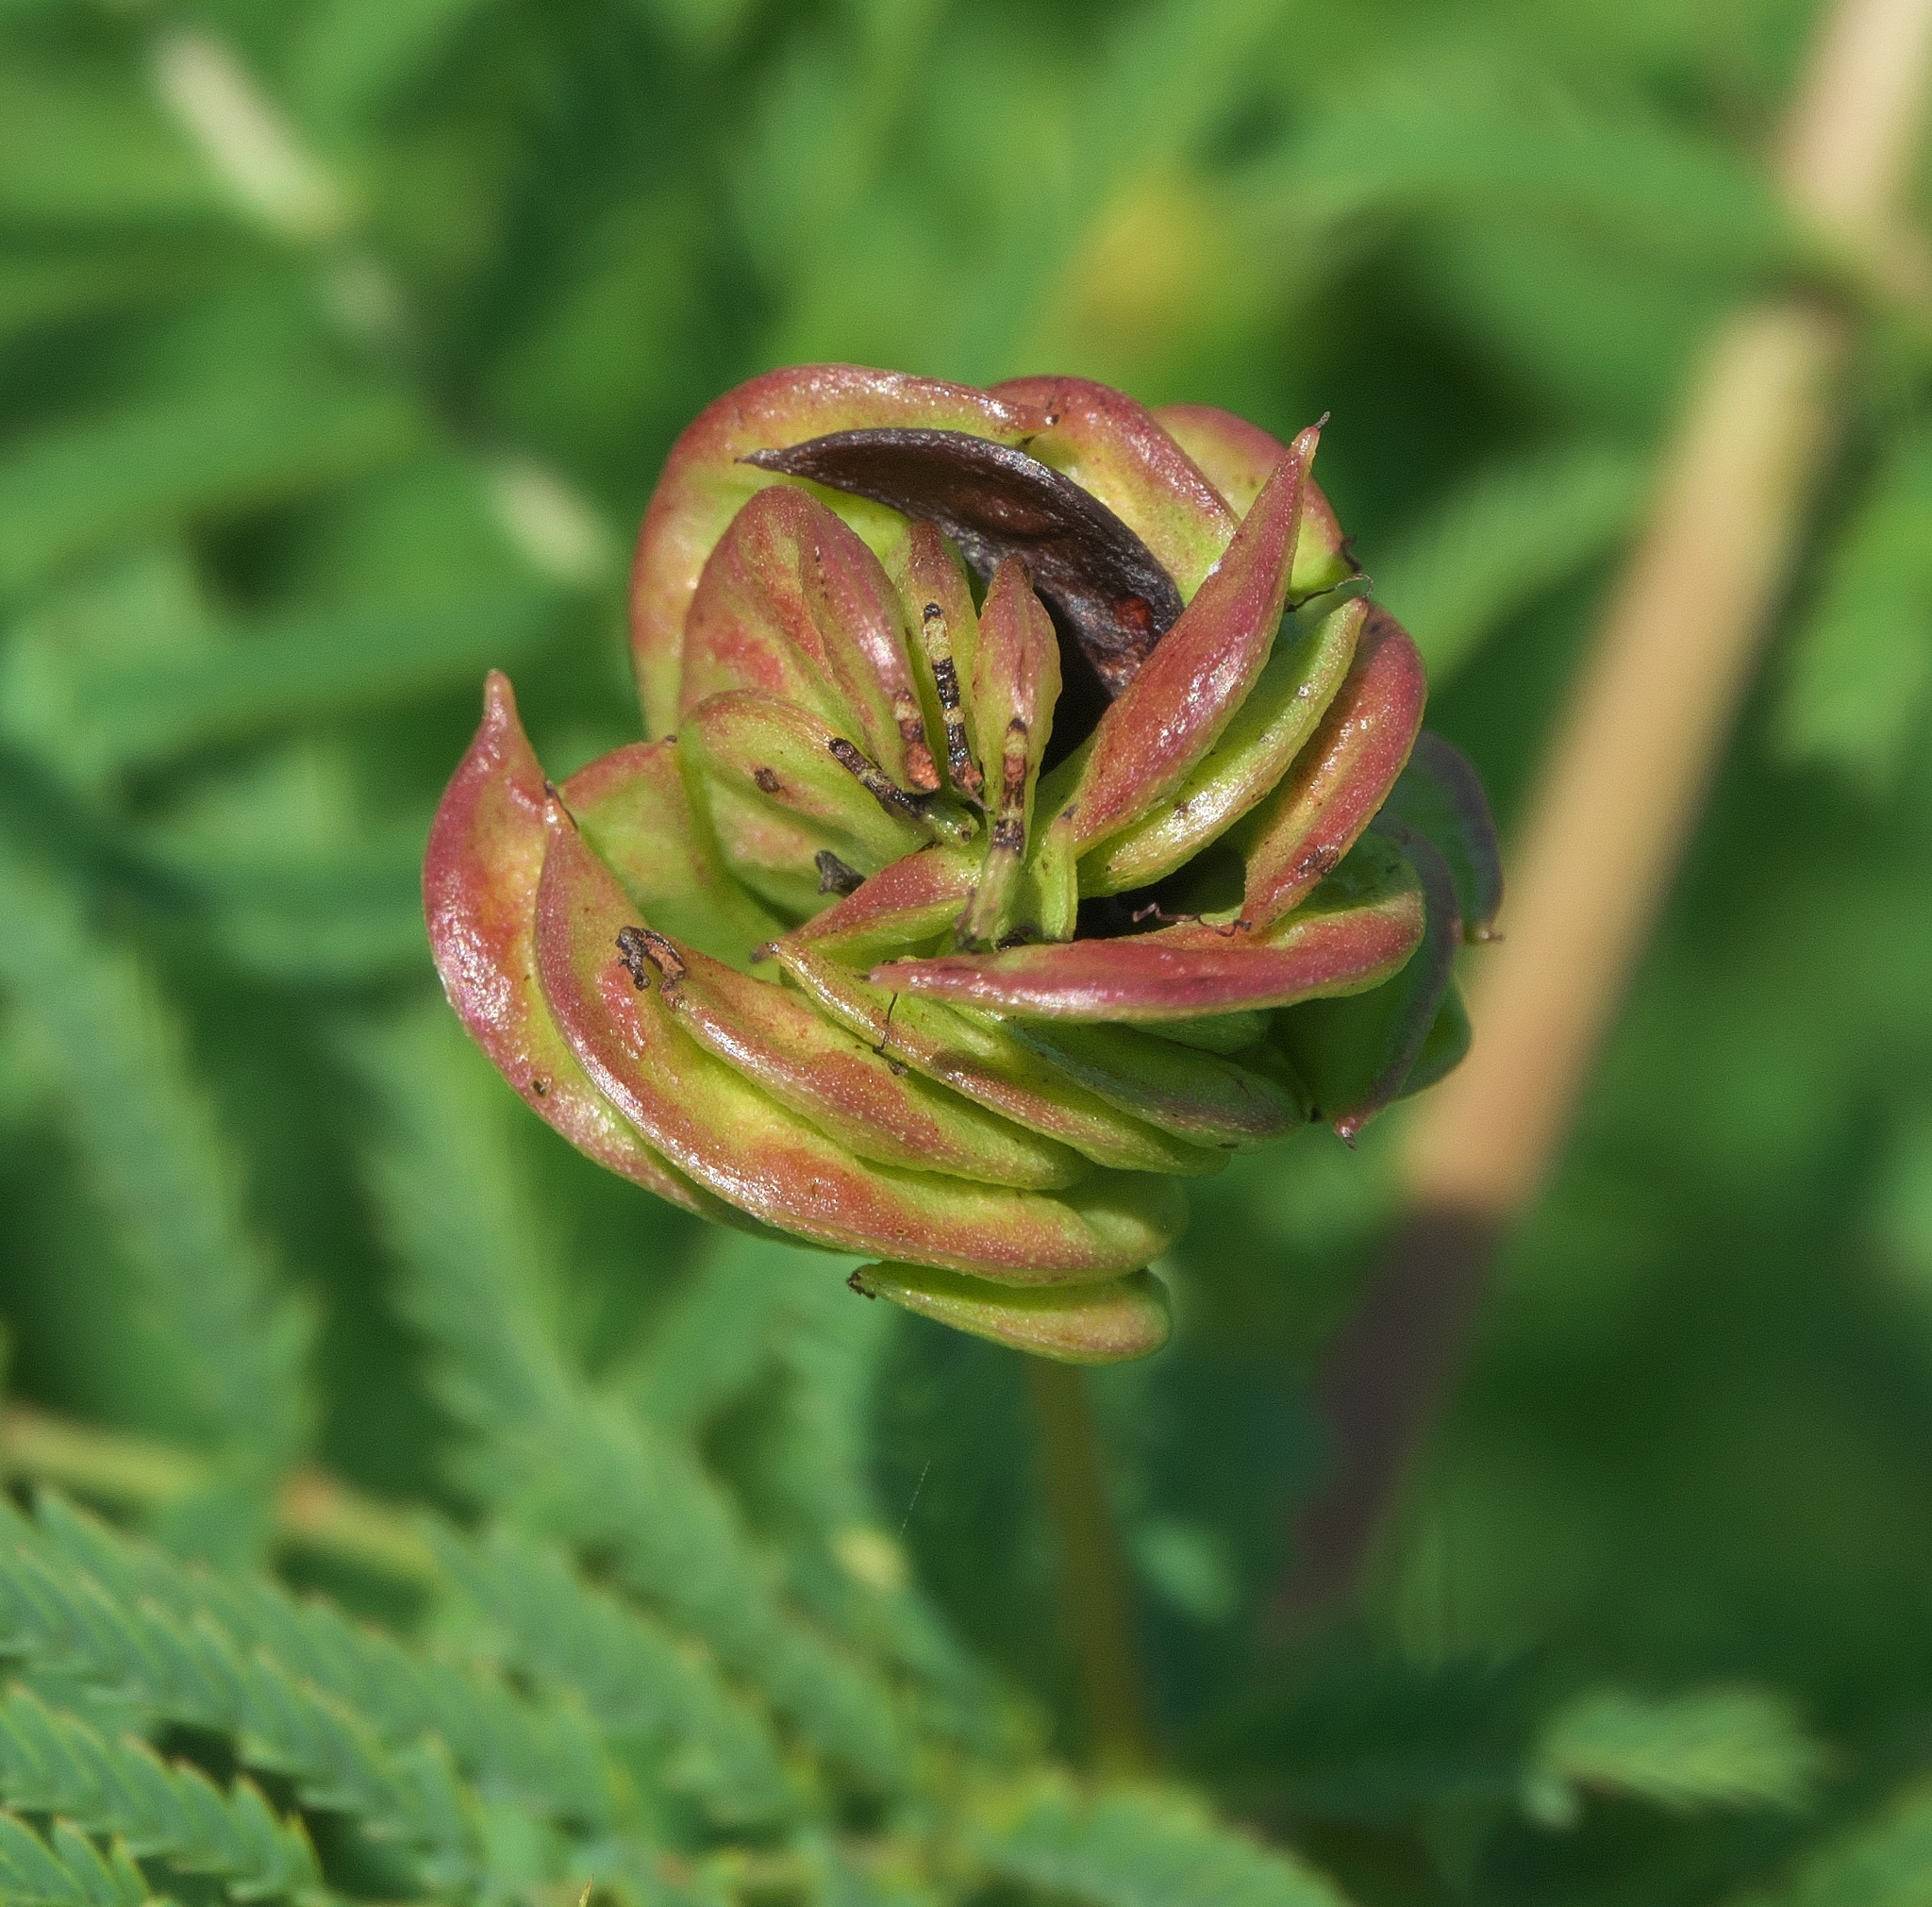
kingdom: Plantae
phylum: Tracheophyta
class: Magnoliopsida
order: Fabales
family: Fabaceae
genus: Desmanthus
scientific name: Desmanthus illinoensis
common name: Illinois bundle-flower
